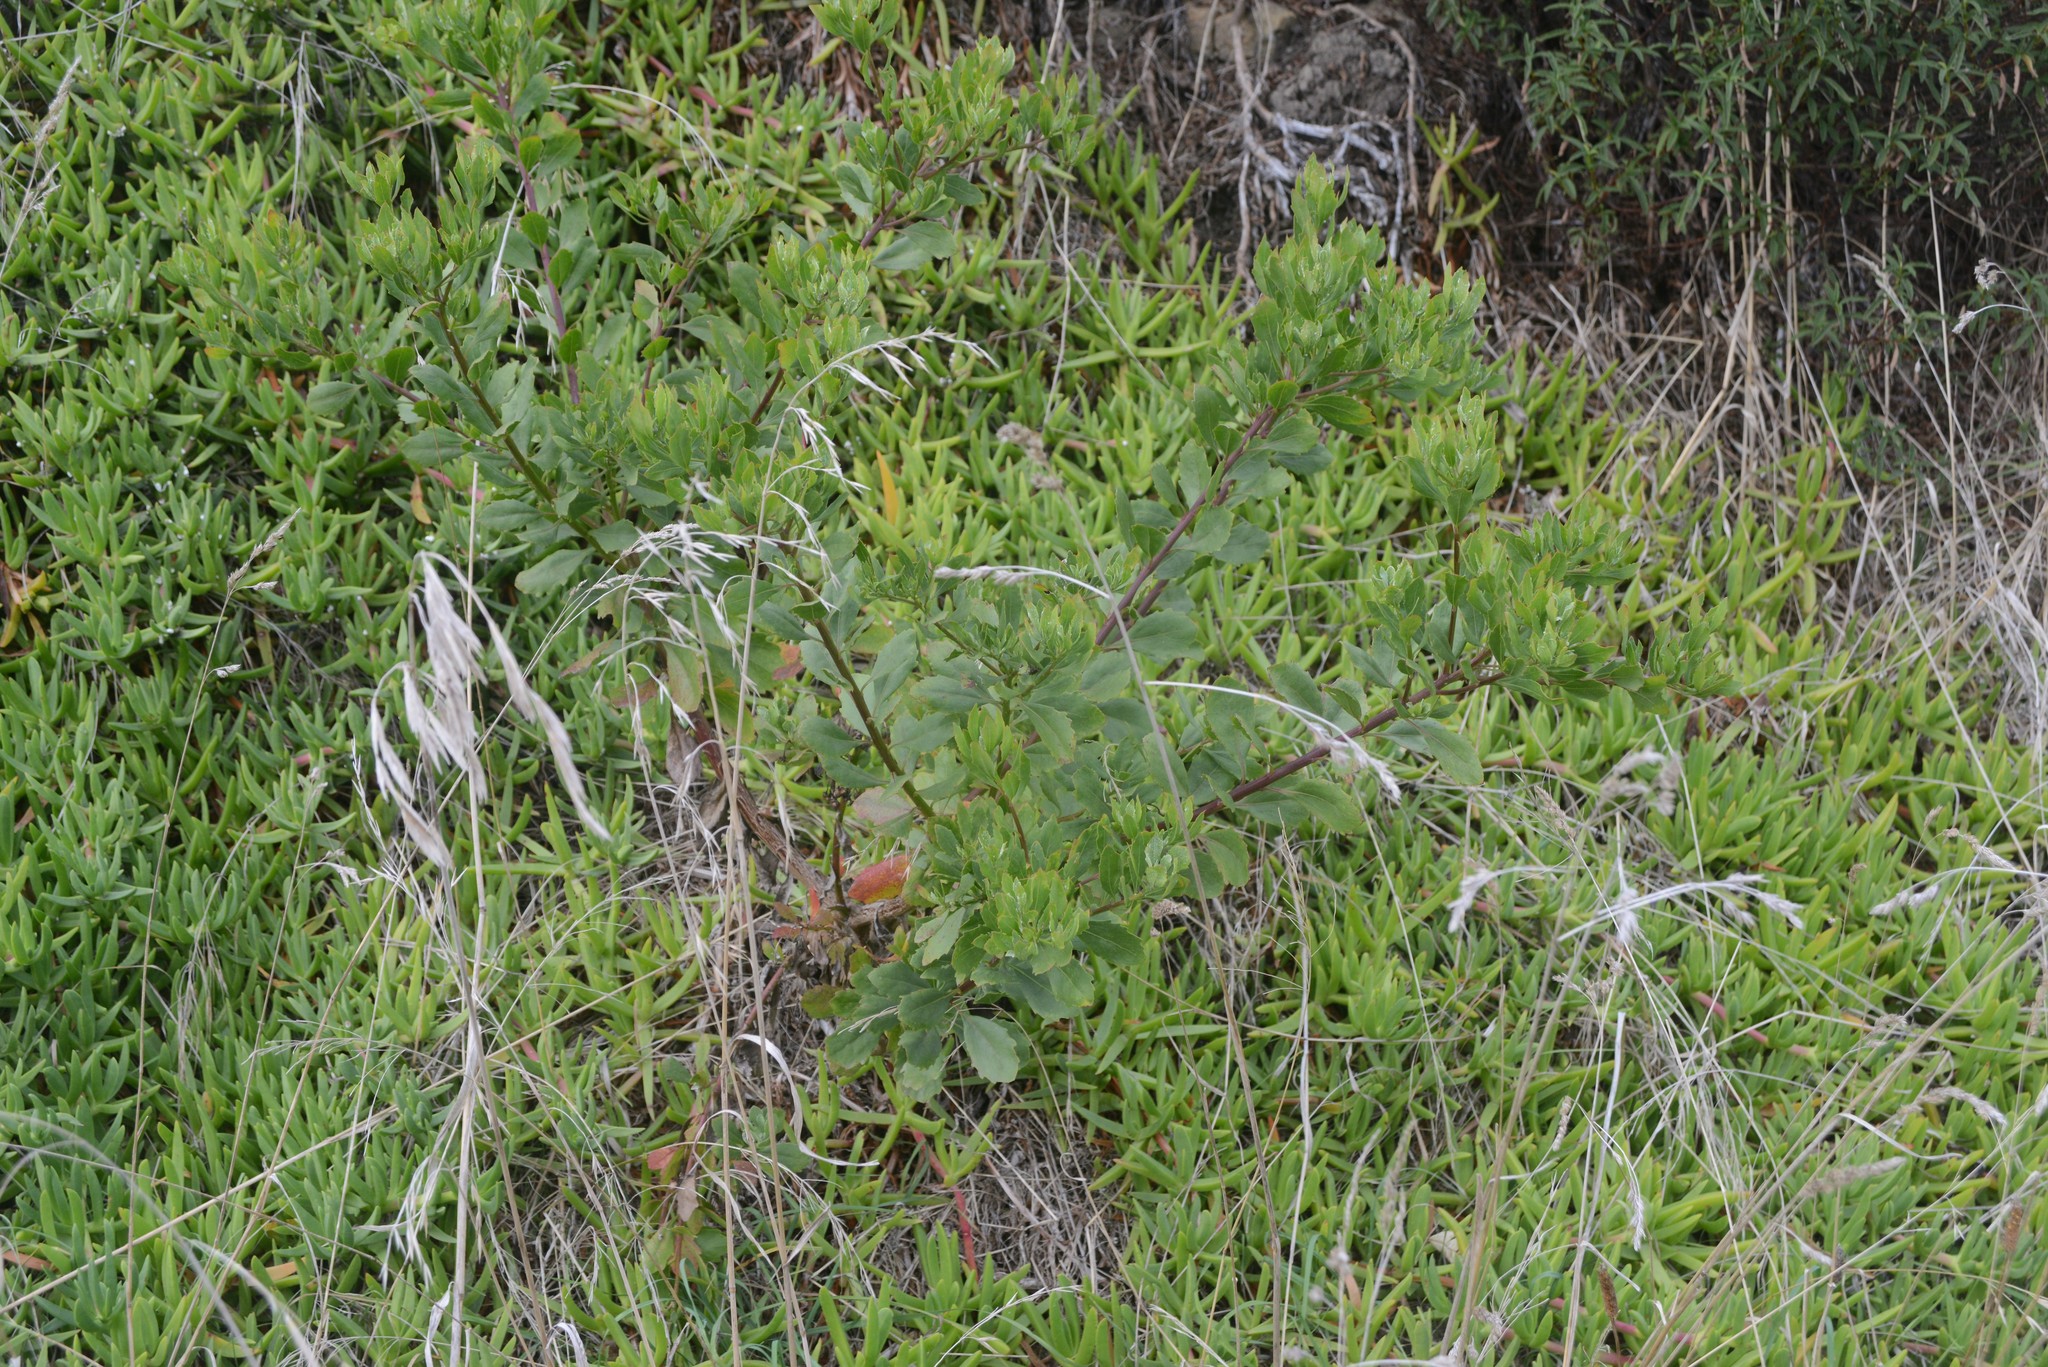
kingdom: Plantae
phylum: Tracheophyta
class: Magnoliopsida
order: Asterales
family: Asteraceae
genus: Osteospermum
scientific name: Osteospermum moniliferum
